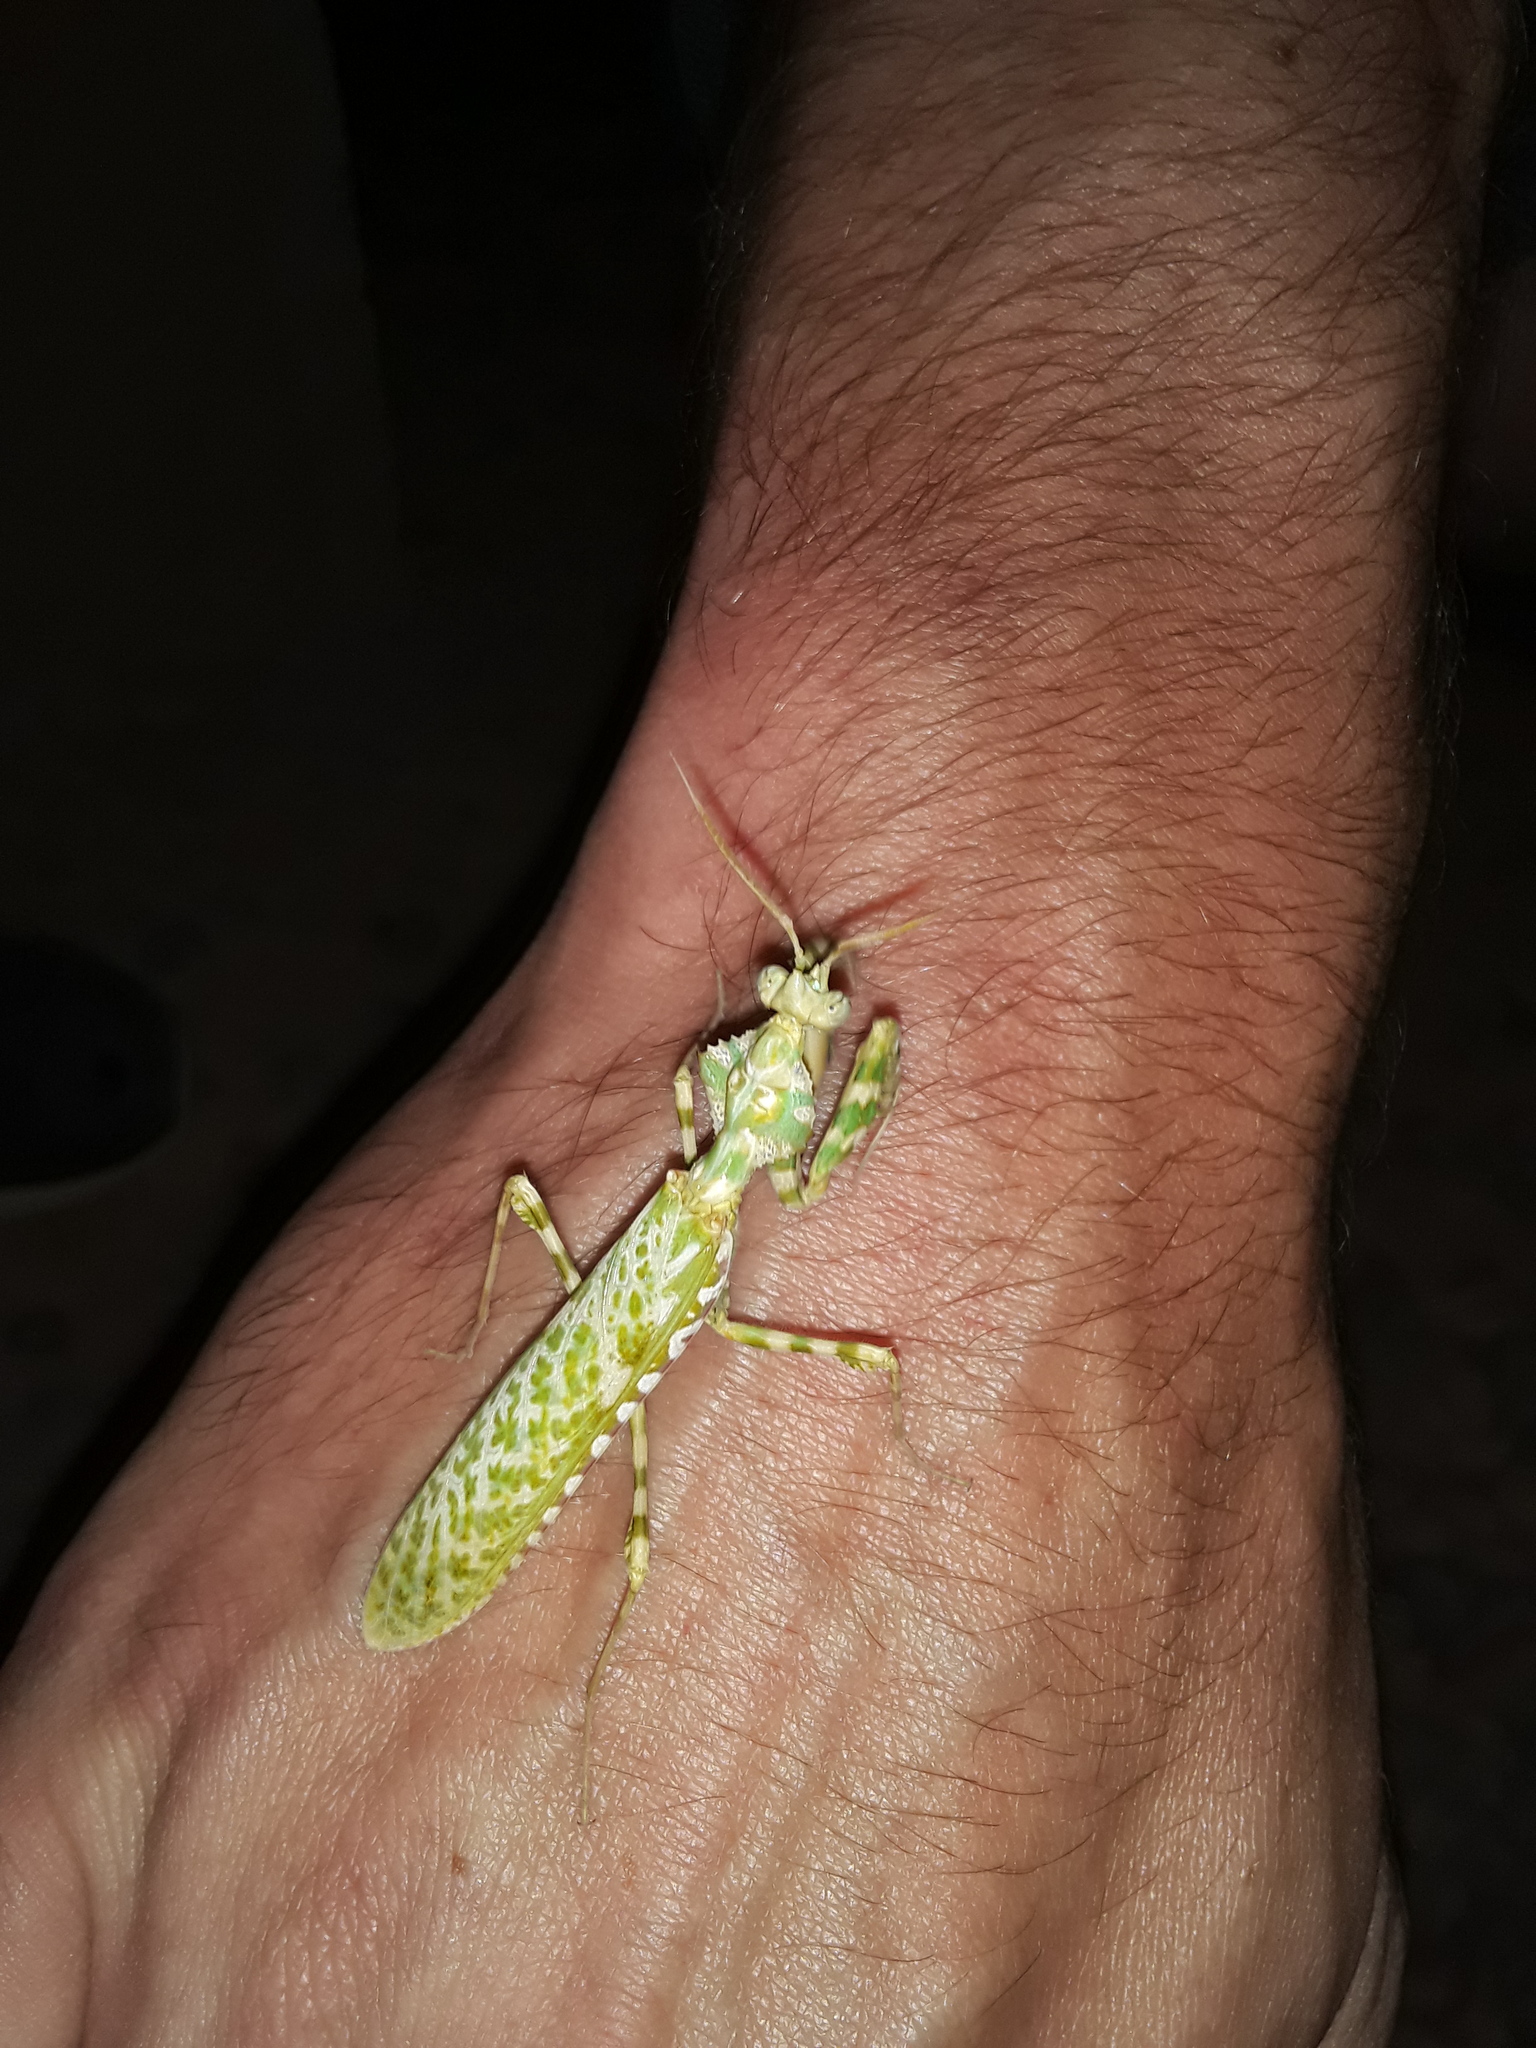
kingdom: Animalia
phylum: Arthropoda
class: Insecta
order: Mantodea
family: Empusidae
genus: Blepharopsis
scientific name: Blepharopsis mendica
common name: Devil's flower mantis
